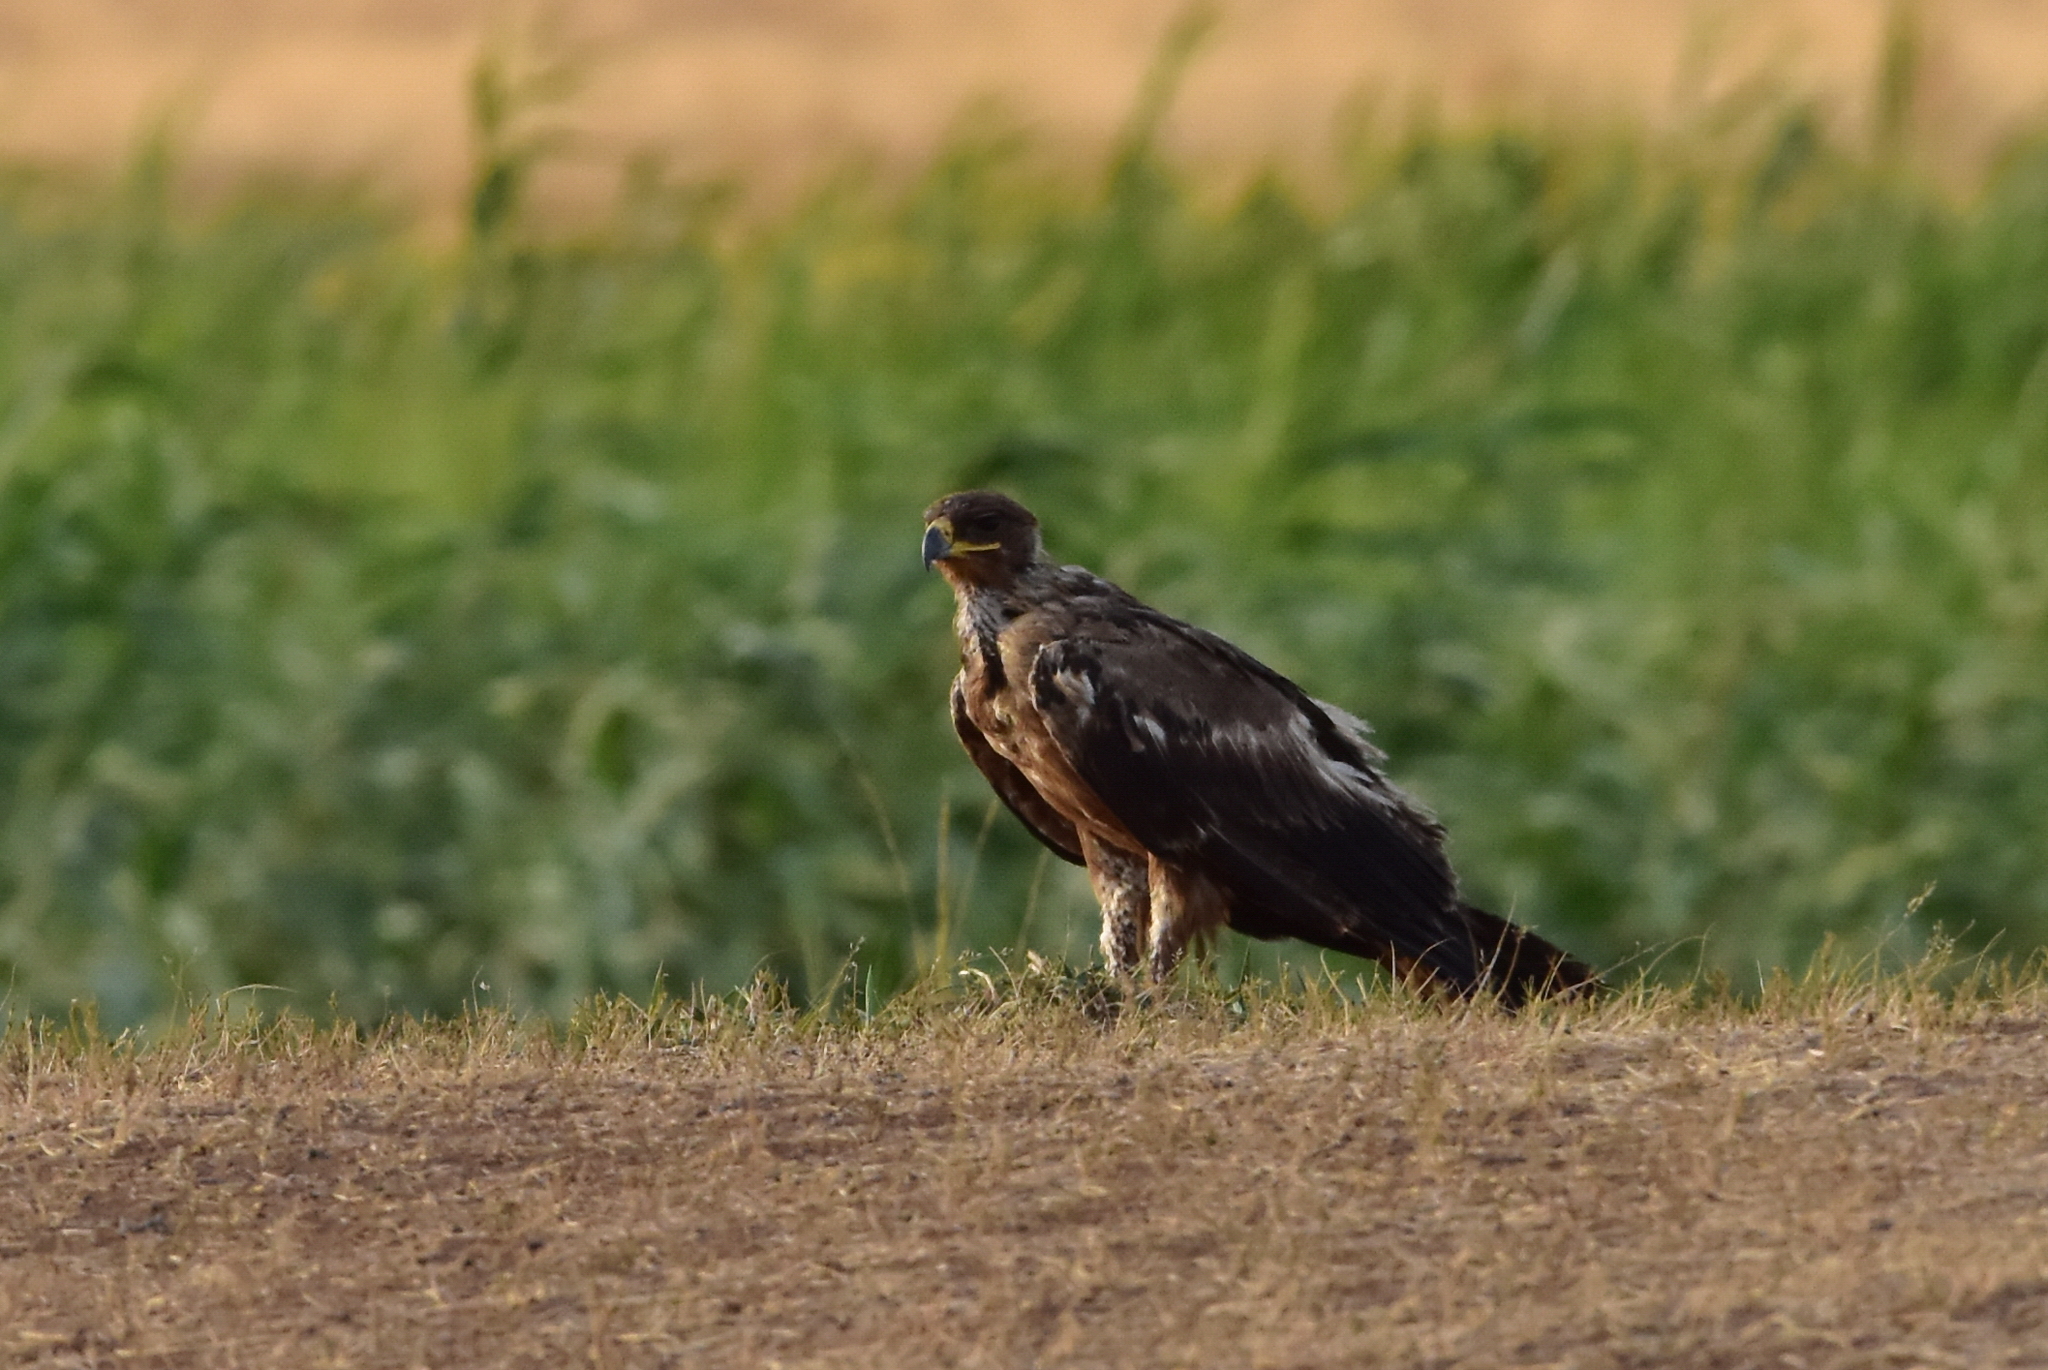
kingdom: Animalia
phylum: Chordata
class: Aves
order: Accipitriformes
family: Accipitridae
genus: Aquila
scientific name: Aquila nipalensis
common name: Steppe eagle
